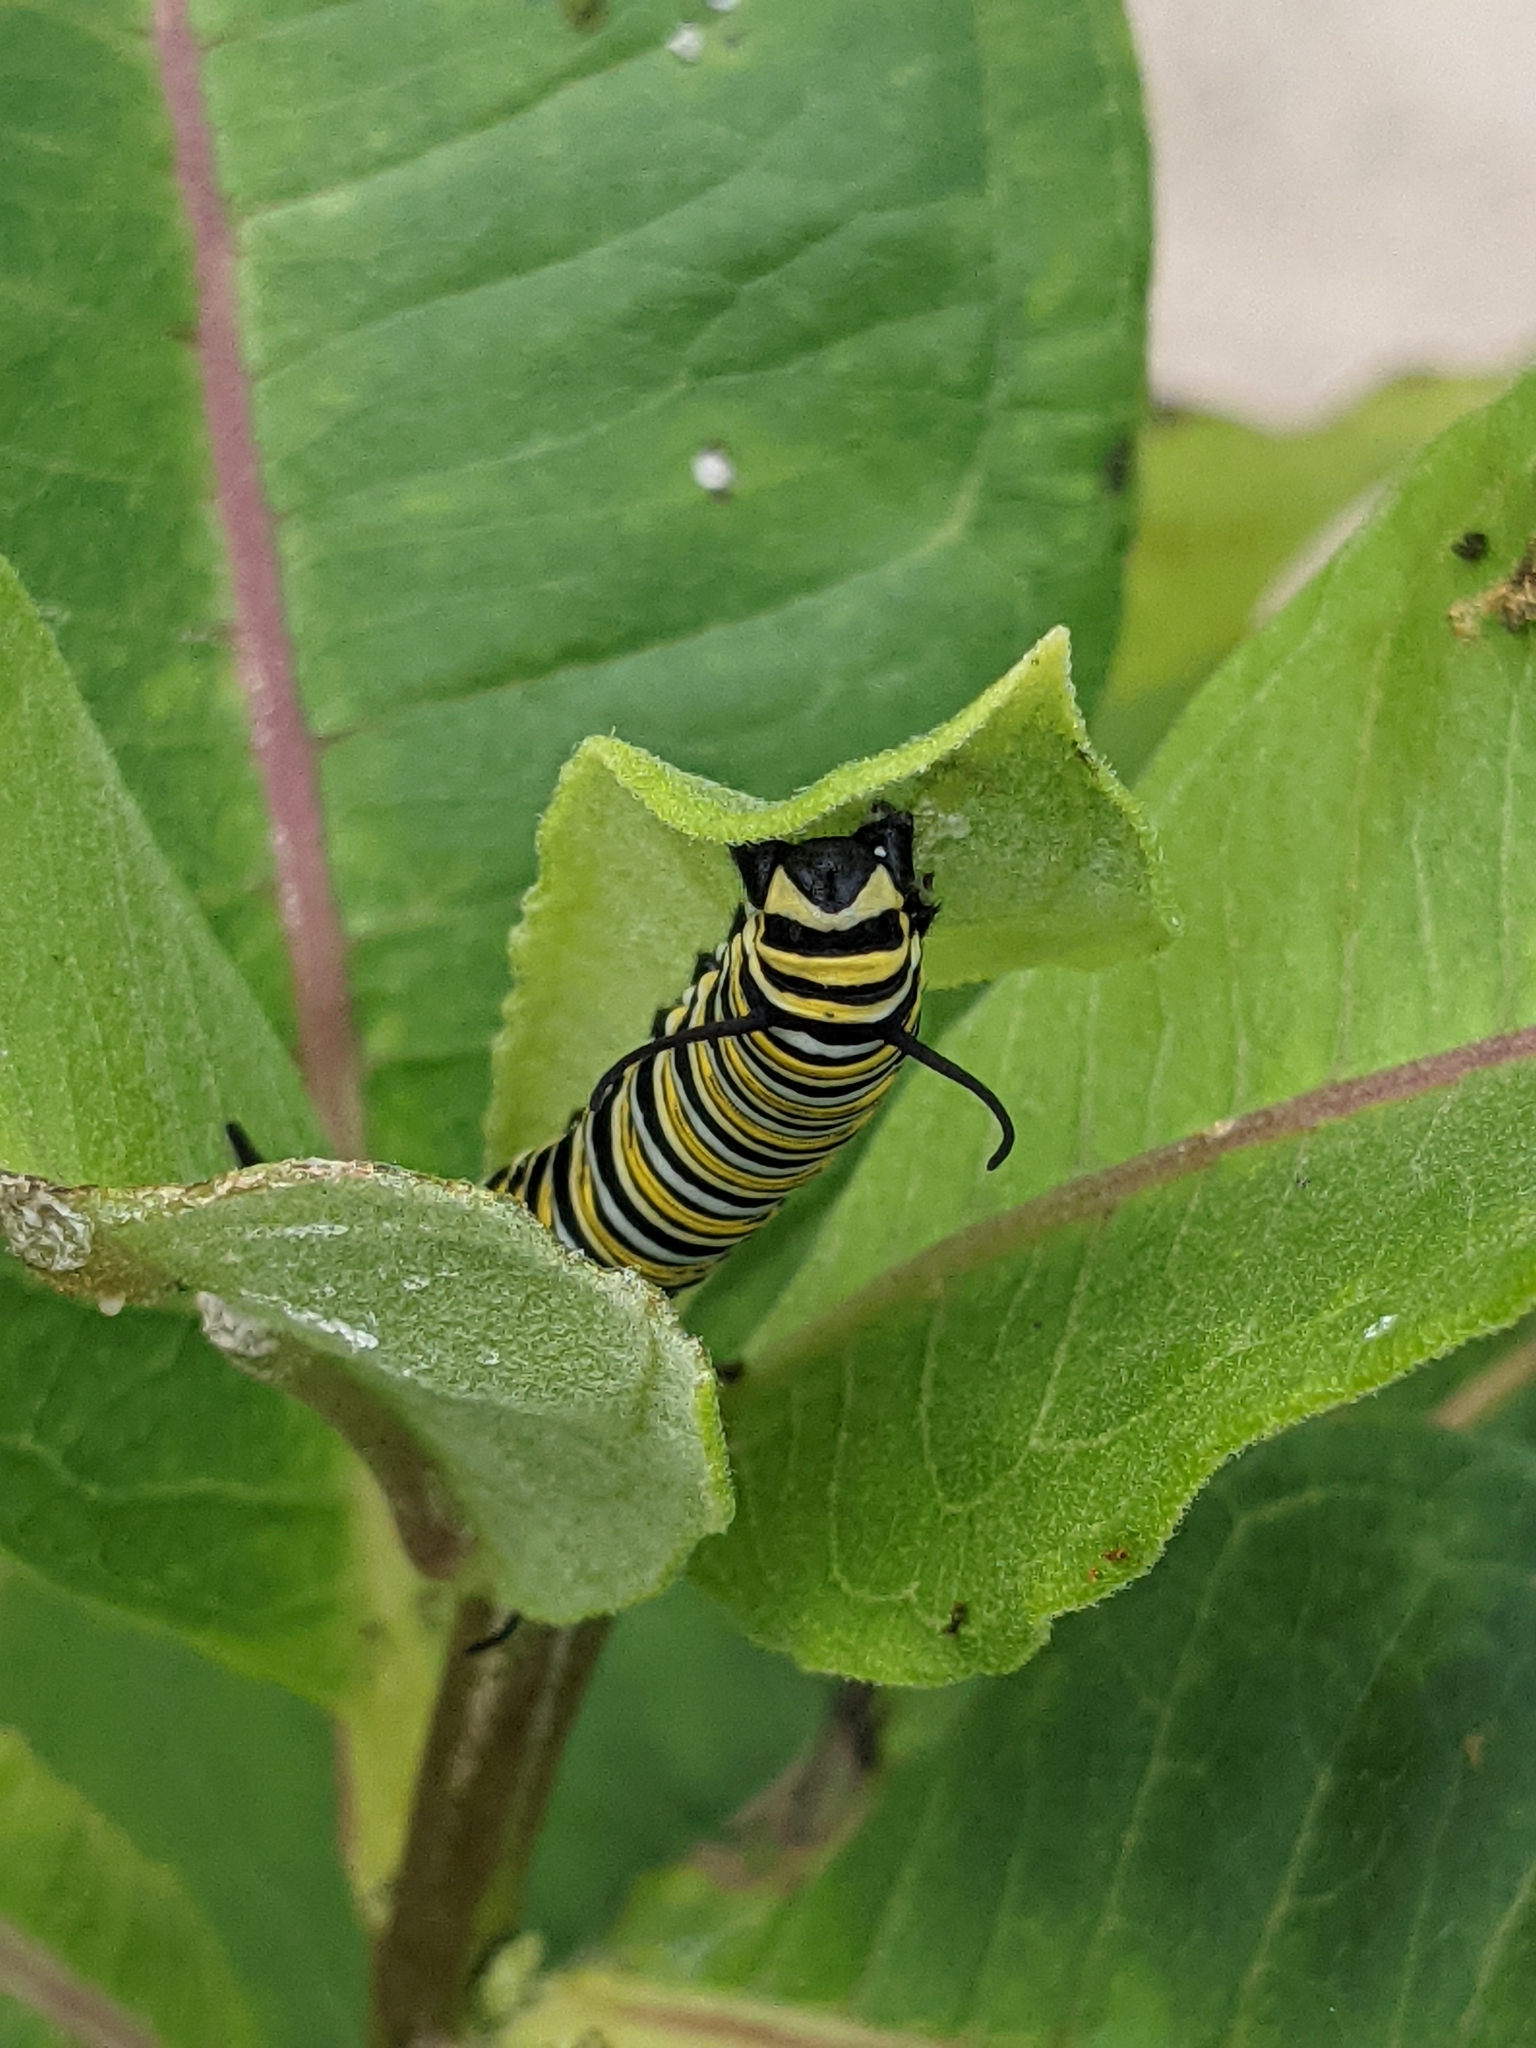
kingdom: Animalia
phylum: Arthropoda
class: Insecta
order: Lepidoptera
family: Nymphalidae
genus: Danaus
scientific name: Danaus plexippus
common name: Monarch
